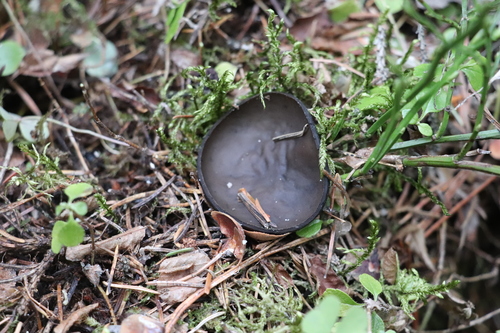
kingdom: Fungi
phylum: Ascomycota
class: Pezizomycetes
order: Pezizales
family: Sarcosomataceae
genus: Pseudoplectania
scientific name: Pseudoplectania melaena
